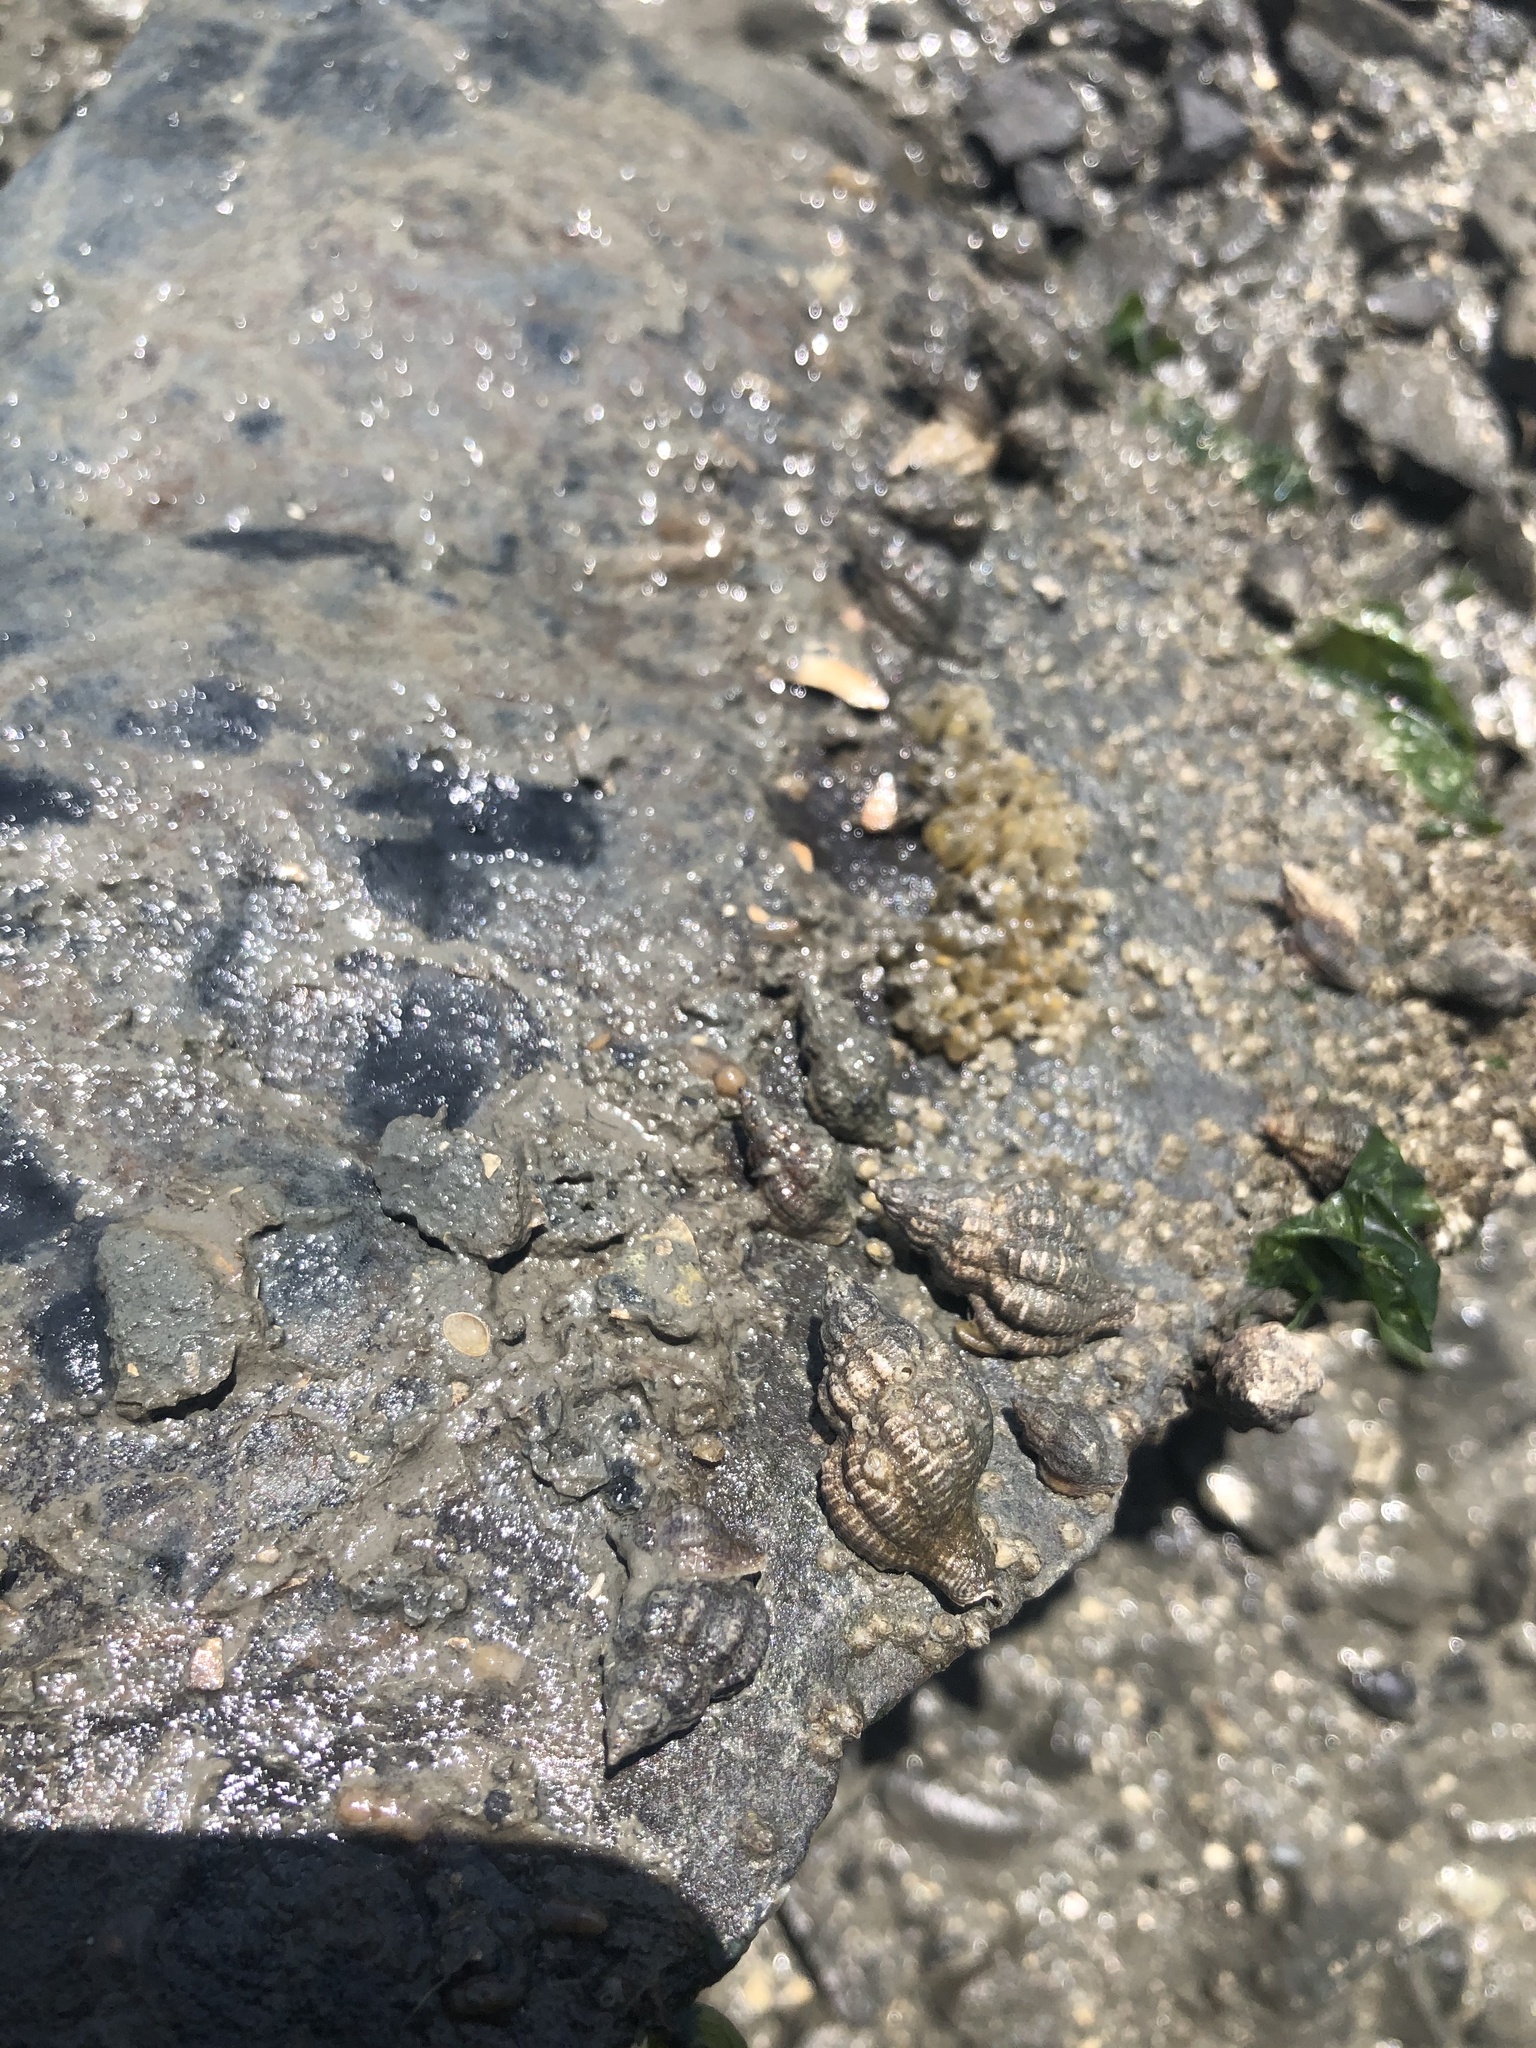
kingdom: Animalia
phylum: Mollusca
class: Gastropoda
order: Neogastropoda
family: Muricidae
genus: Urosalpinx
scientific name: Urosalpinx cinerea
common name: American sting winkle
